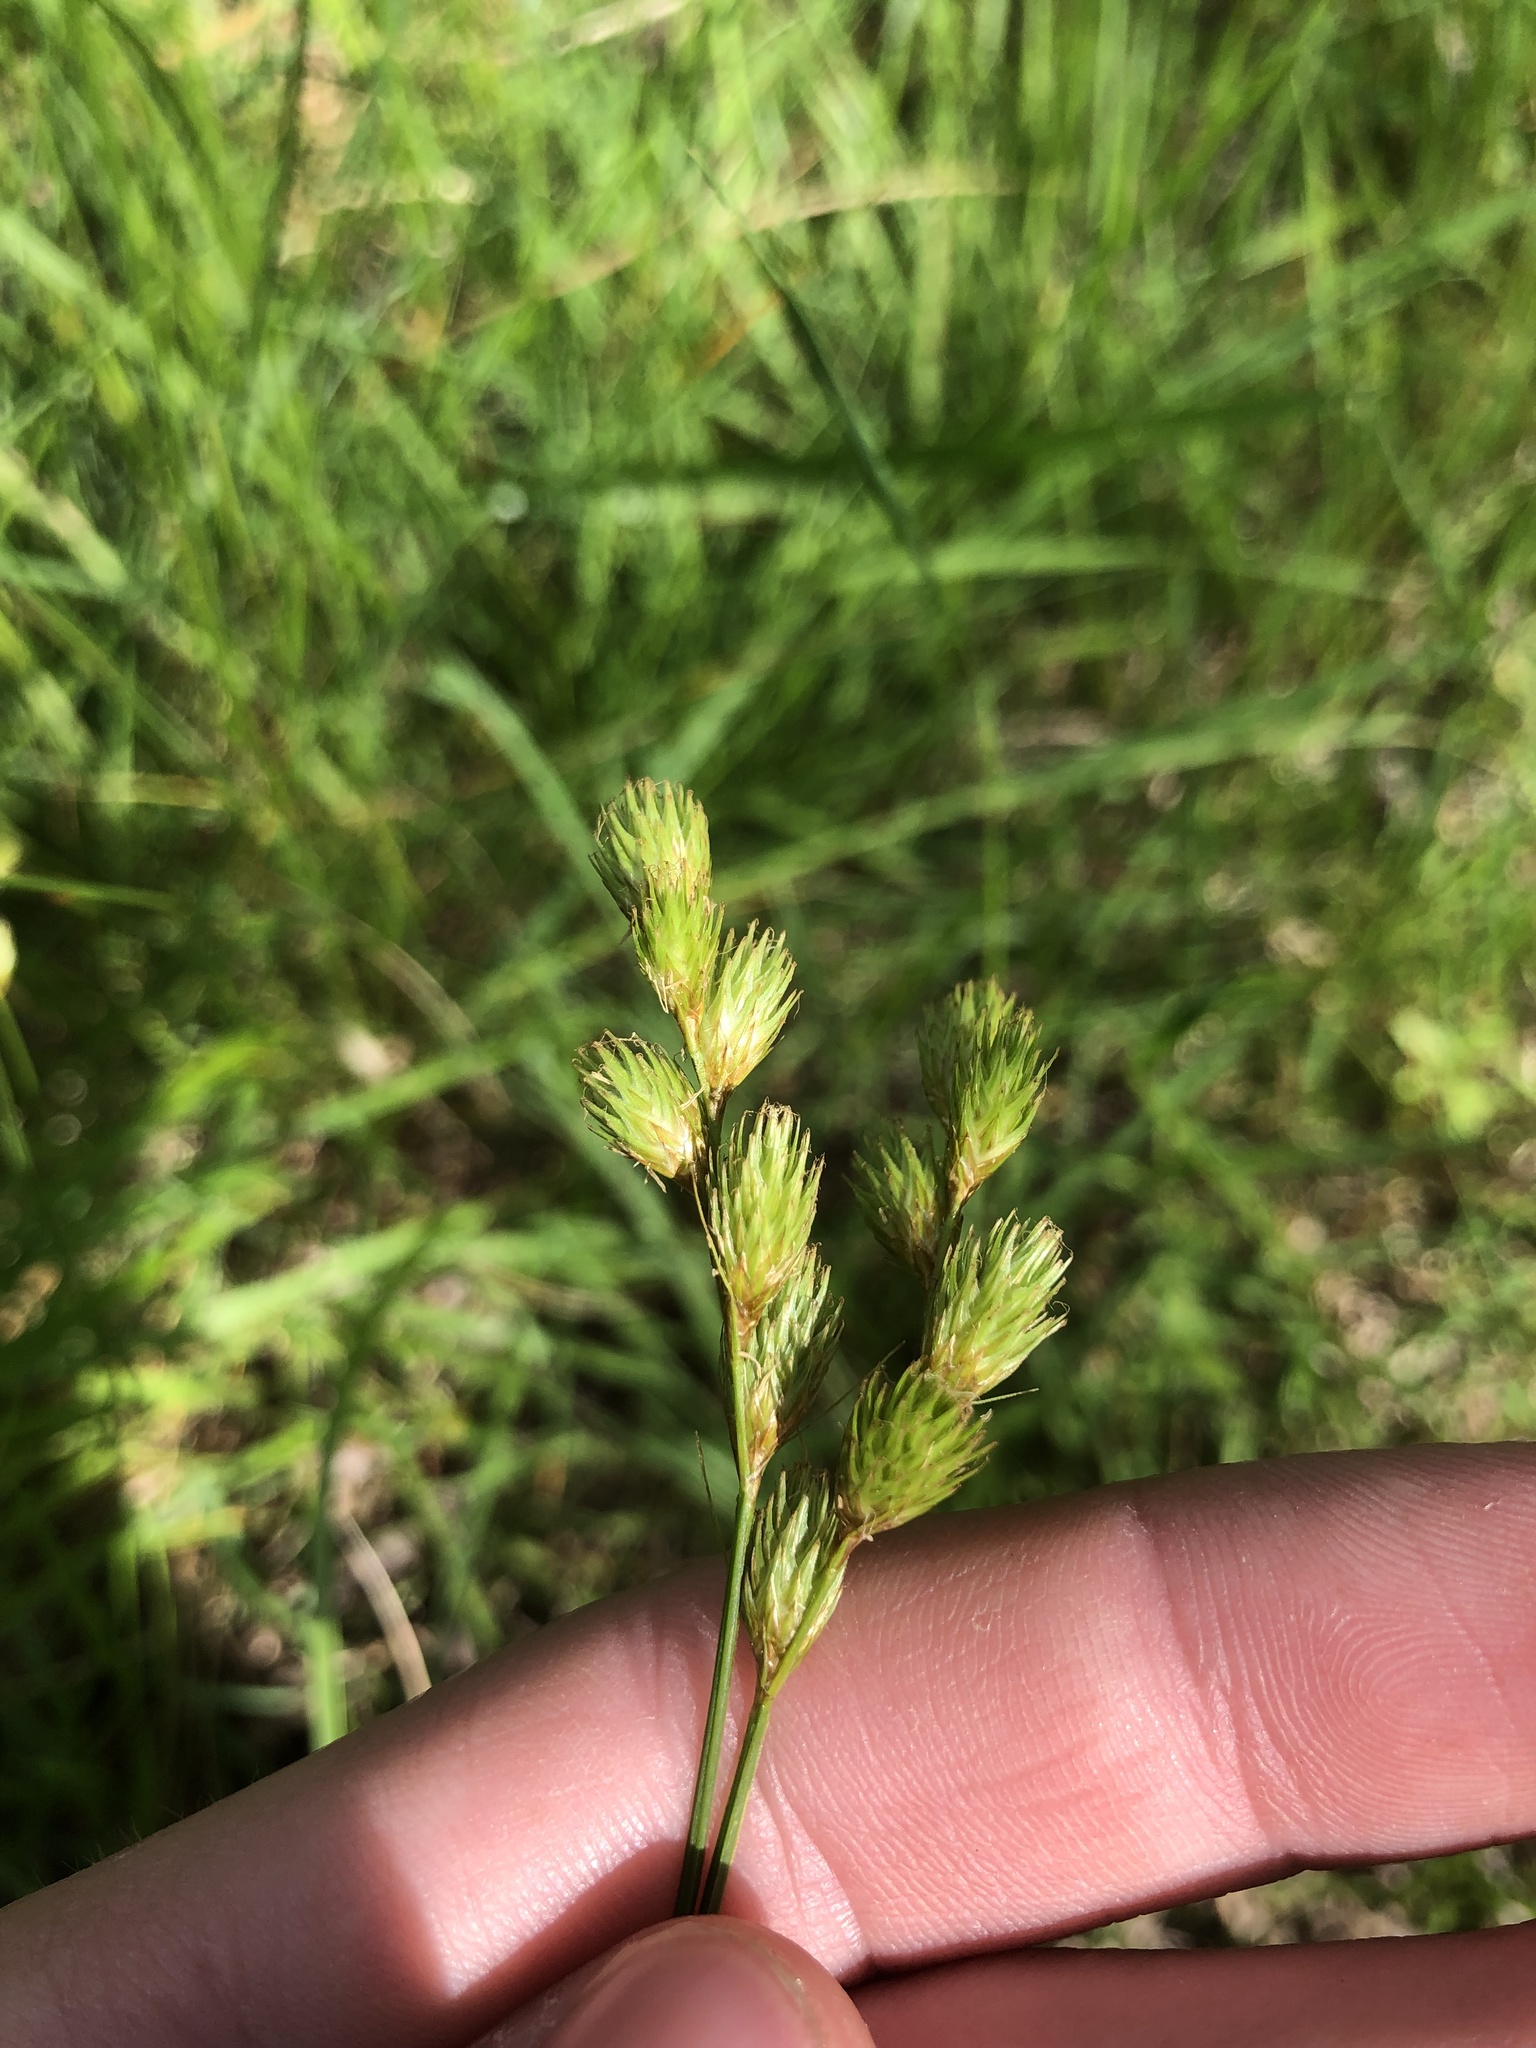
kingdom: Plantae
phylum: Tracheophyta
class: Liliopsida
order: Poales
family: Cyperaceae
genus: Carex
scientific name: Carex scoparia
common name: Broom sedge
